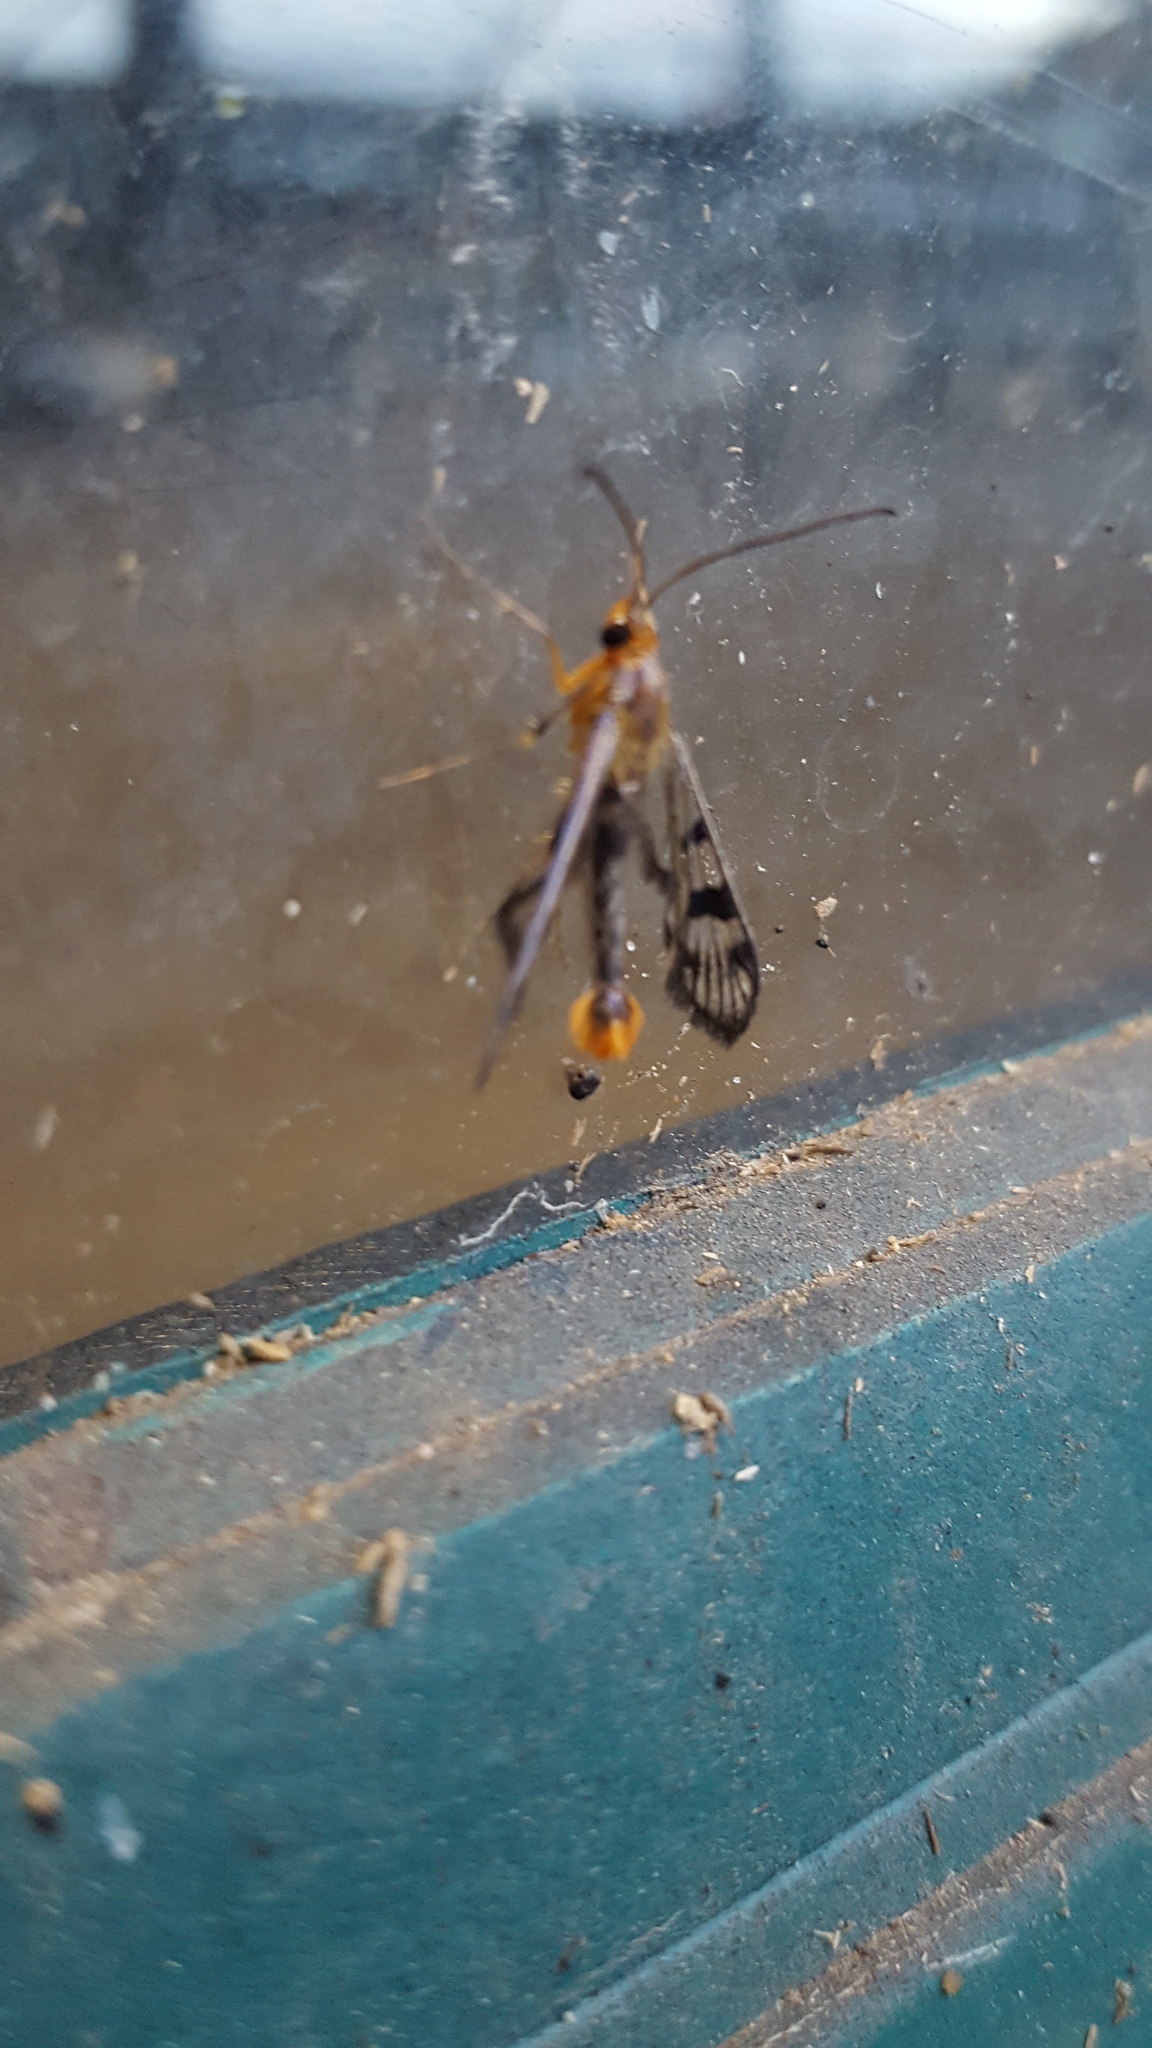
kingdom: Animalia
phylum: Arthropoda
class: Insecta
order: Lepidoptera
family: Sesiidae
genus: Synanthedon
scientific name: Synanthedon acerni
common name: Maple callus borer moth
